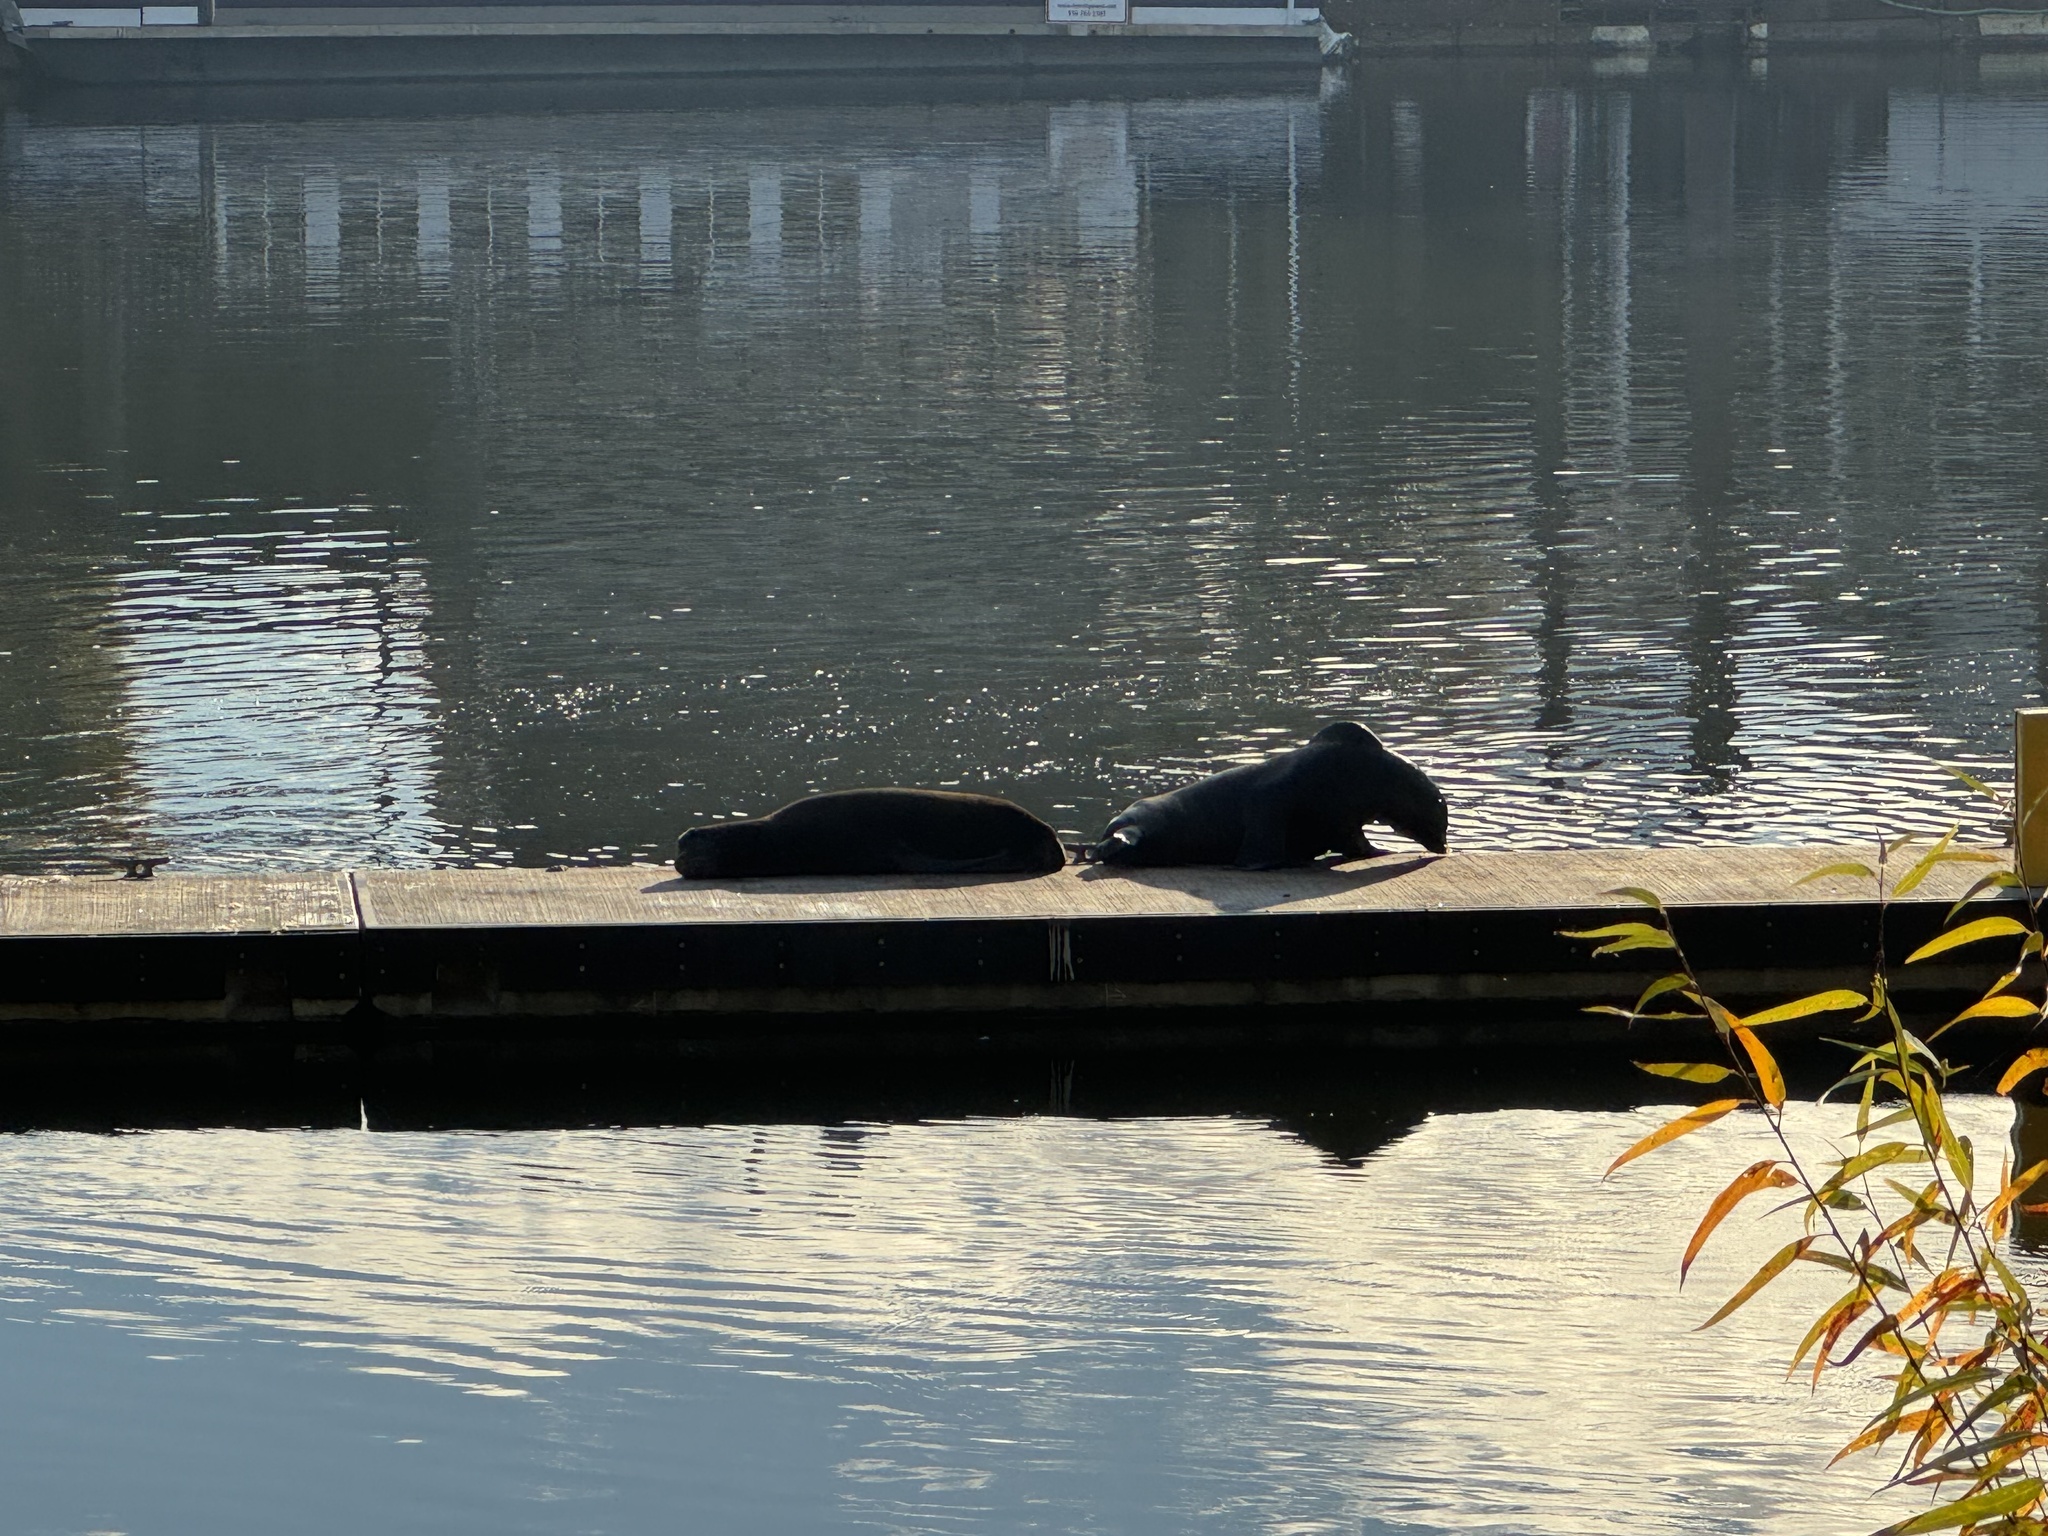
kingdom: Animalia
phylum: Chordata
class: Mammalia
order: Carnivora
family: Otariidae
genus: Zalophus
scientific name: Zalophus californianus
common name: California sea lion
